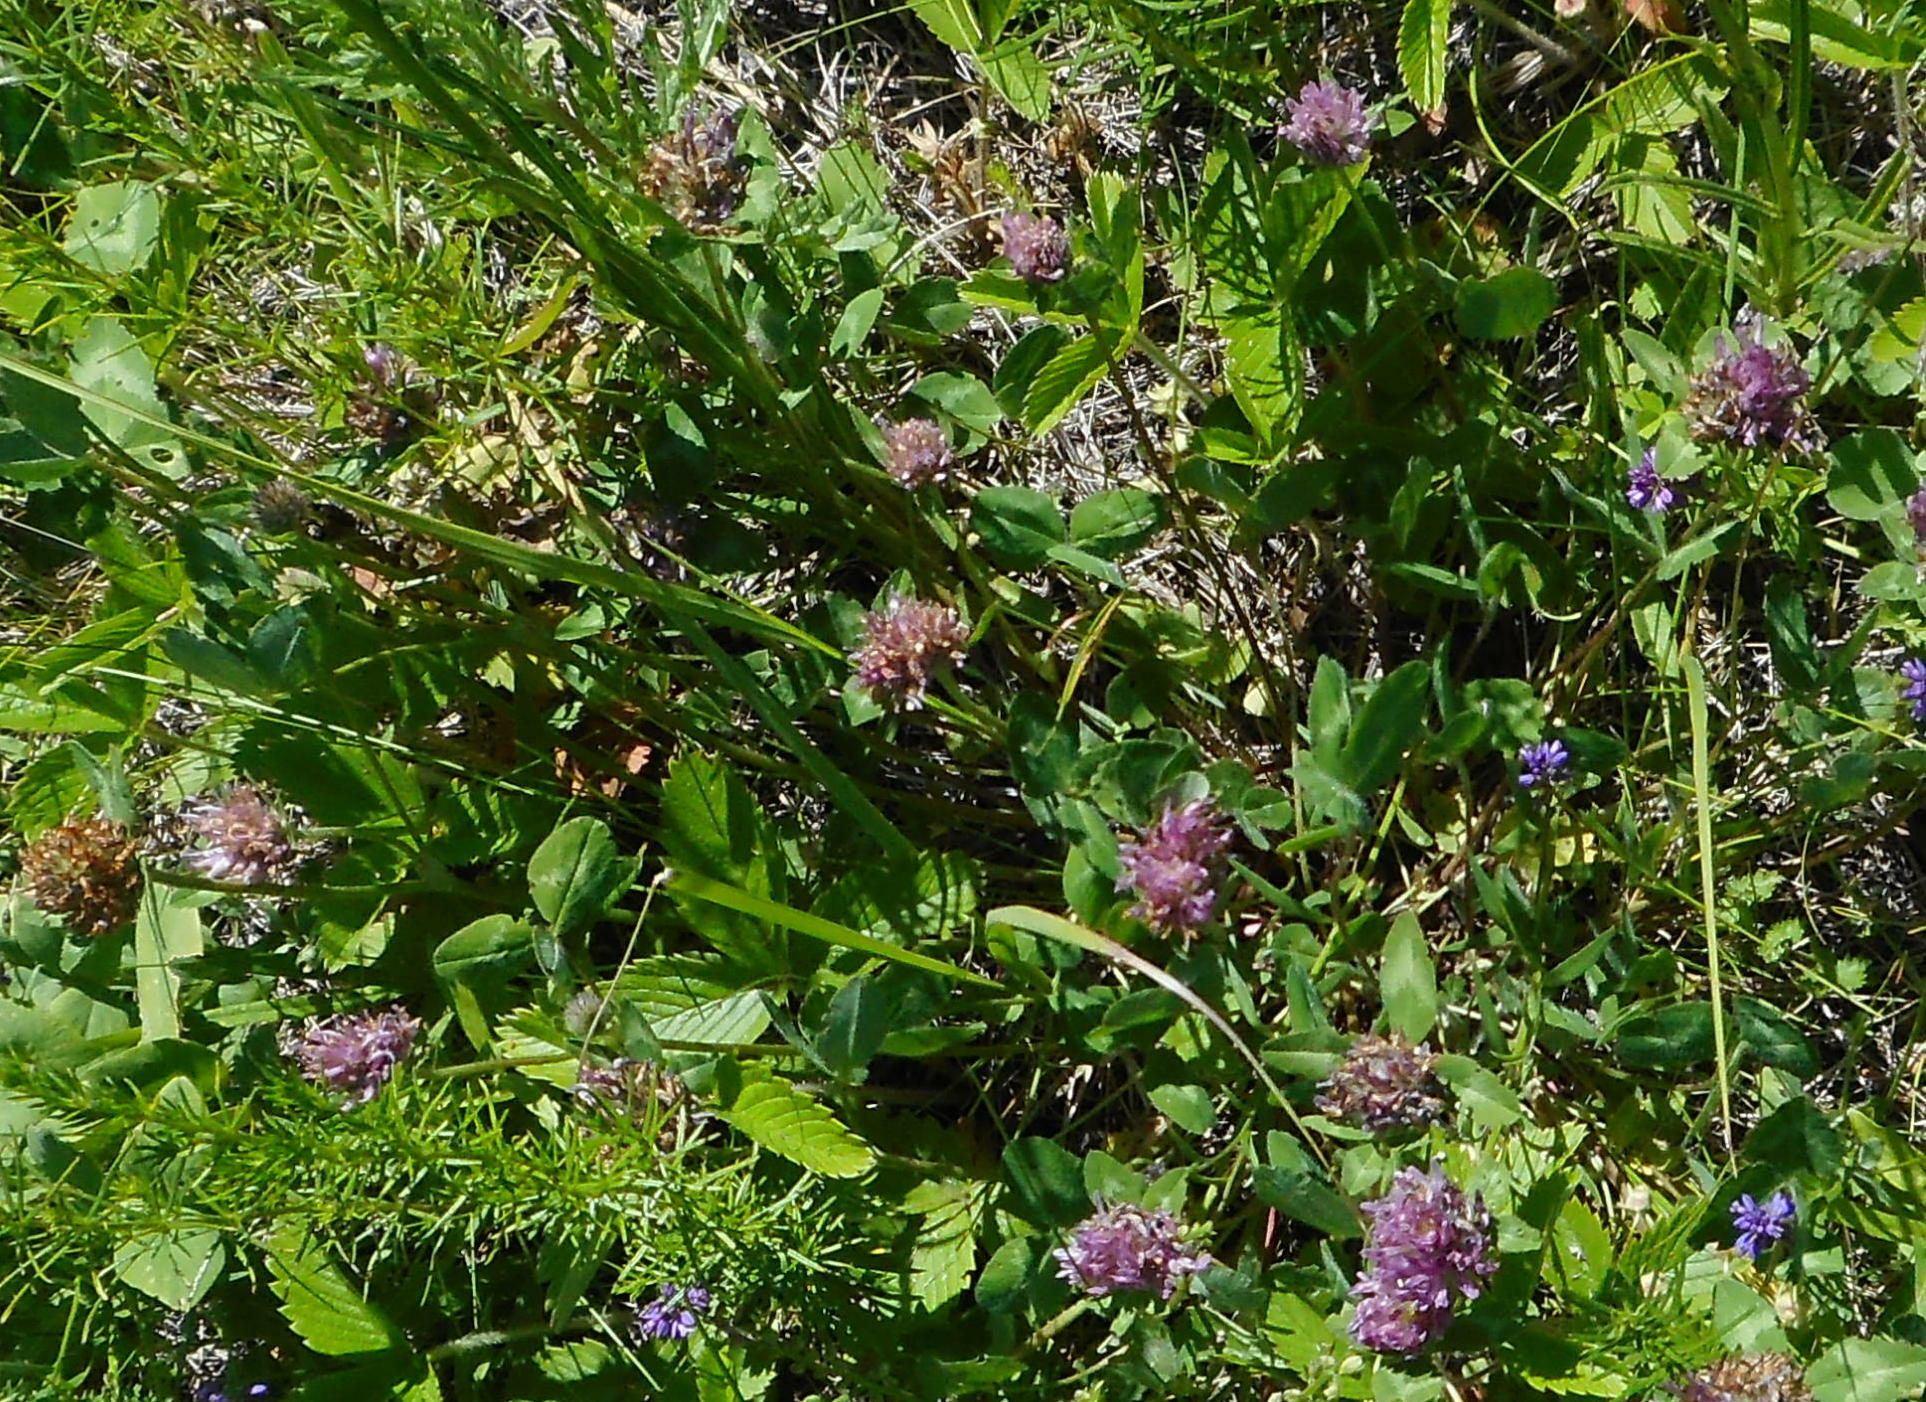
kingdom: Plantae
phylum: Tracheophyta
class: Magnoliopsida
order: Fabales
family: Fabaceae
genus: Trifolium
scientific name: Trifolium pratense
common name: Red clover
